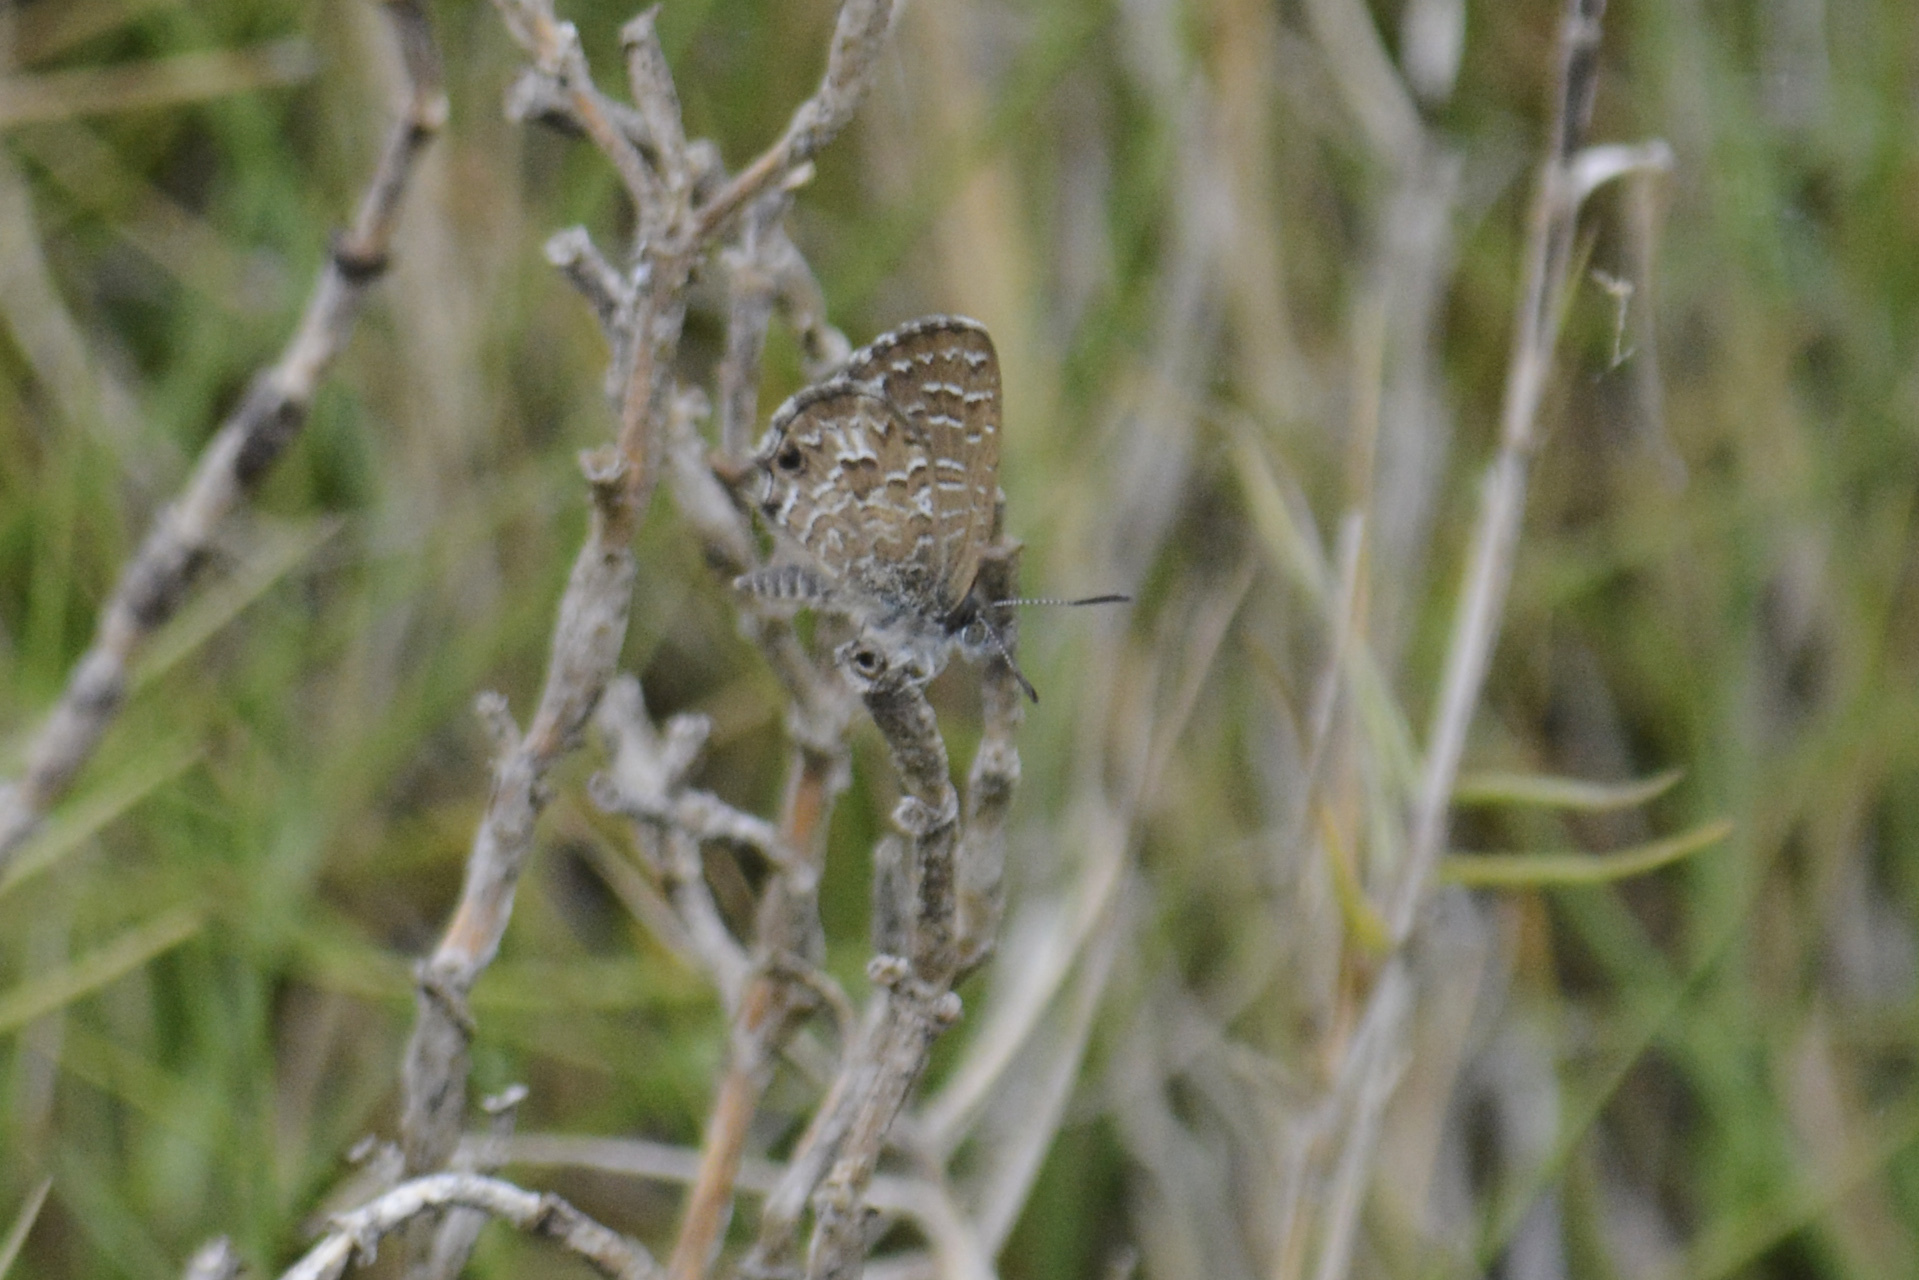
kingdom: Animalia
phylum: Arthropoda
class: Insecta
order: Lepidoptera
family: Lycaenidae
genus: Theclinesthes
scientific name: Theclinesthes serpentata
